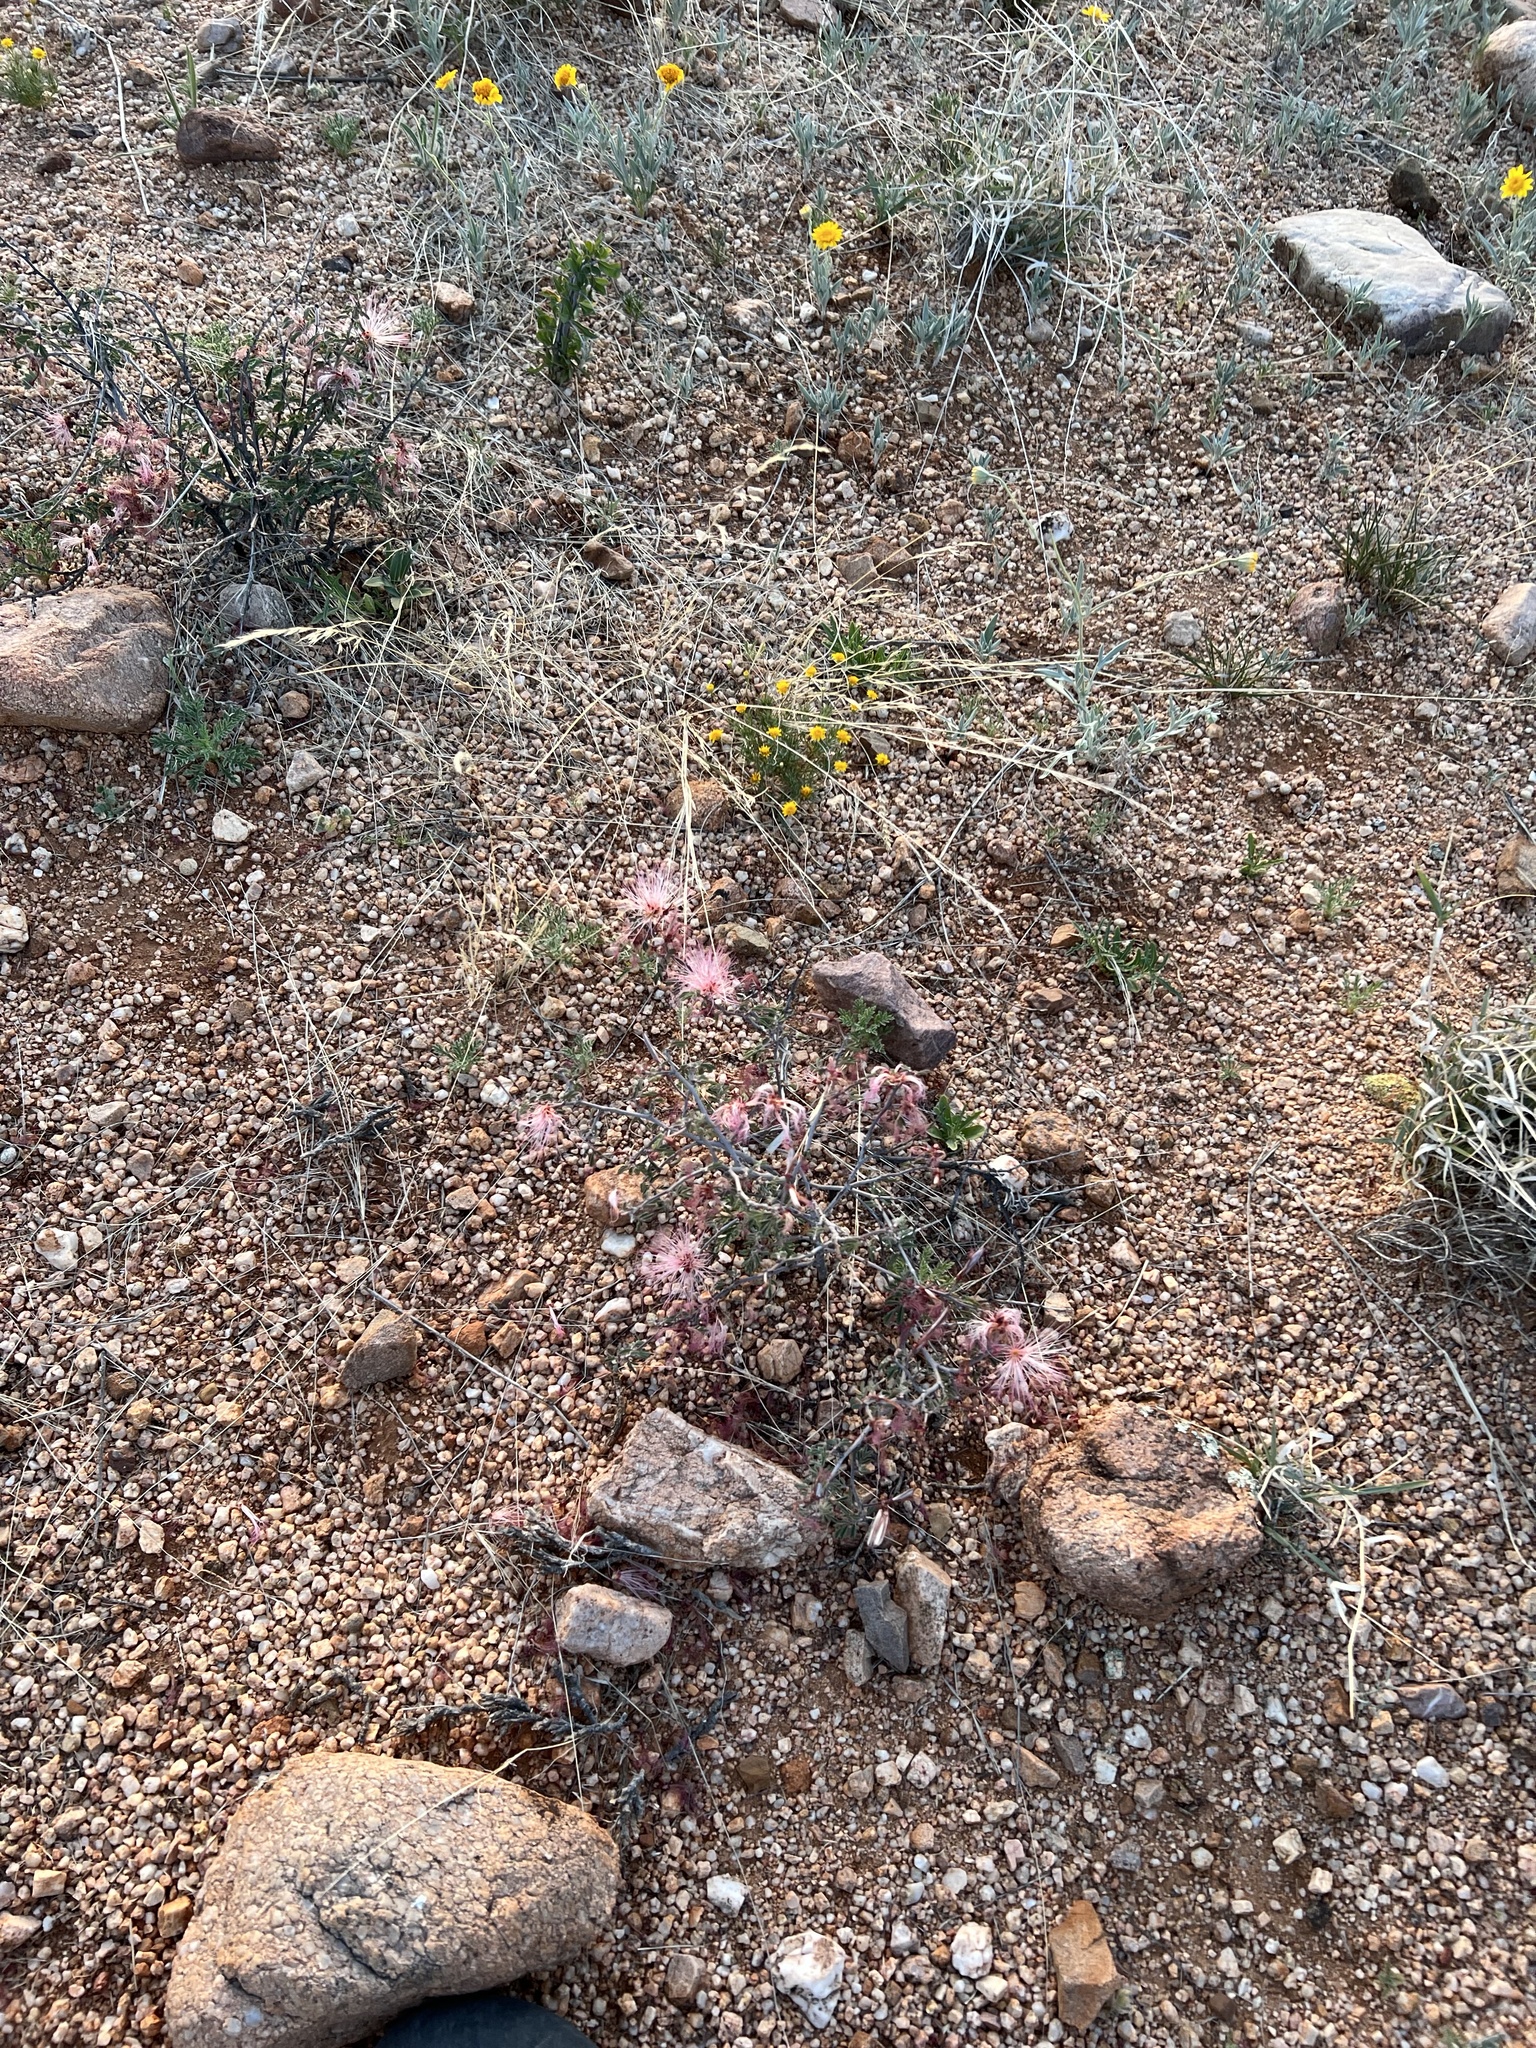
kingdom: Plantae
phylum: Tracheophyta
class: Magnoliopsida
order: Fabales
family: Fabaceae
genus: Calliandra
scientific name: Calliandra eriophylla
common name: Fairy-duster
